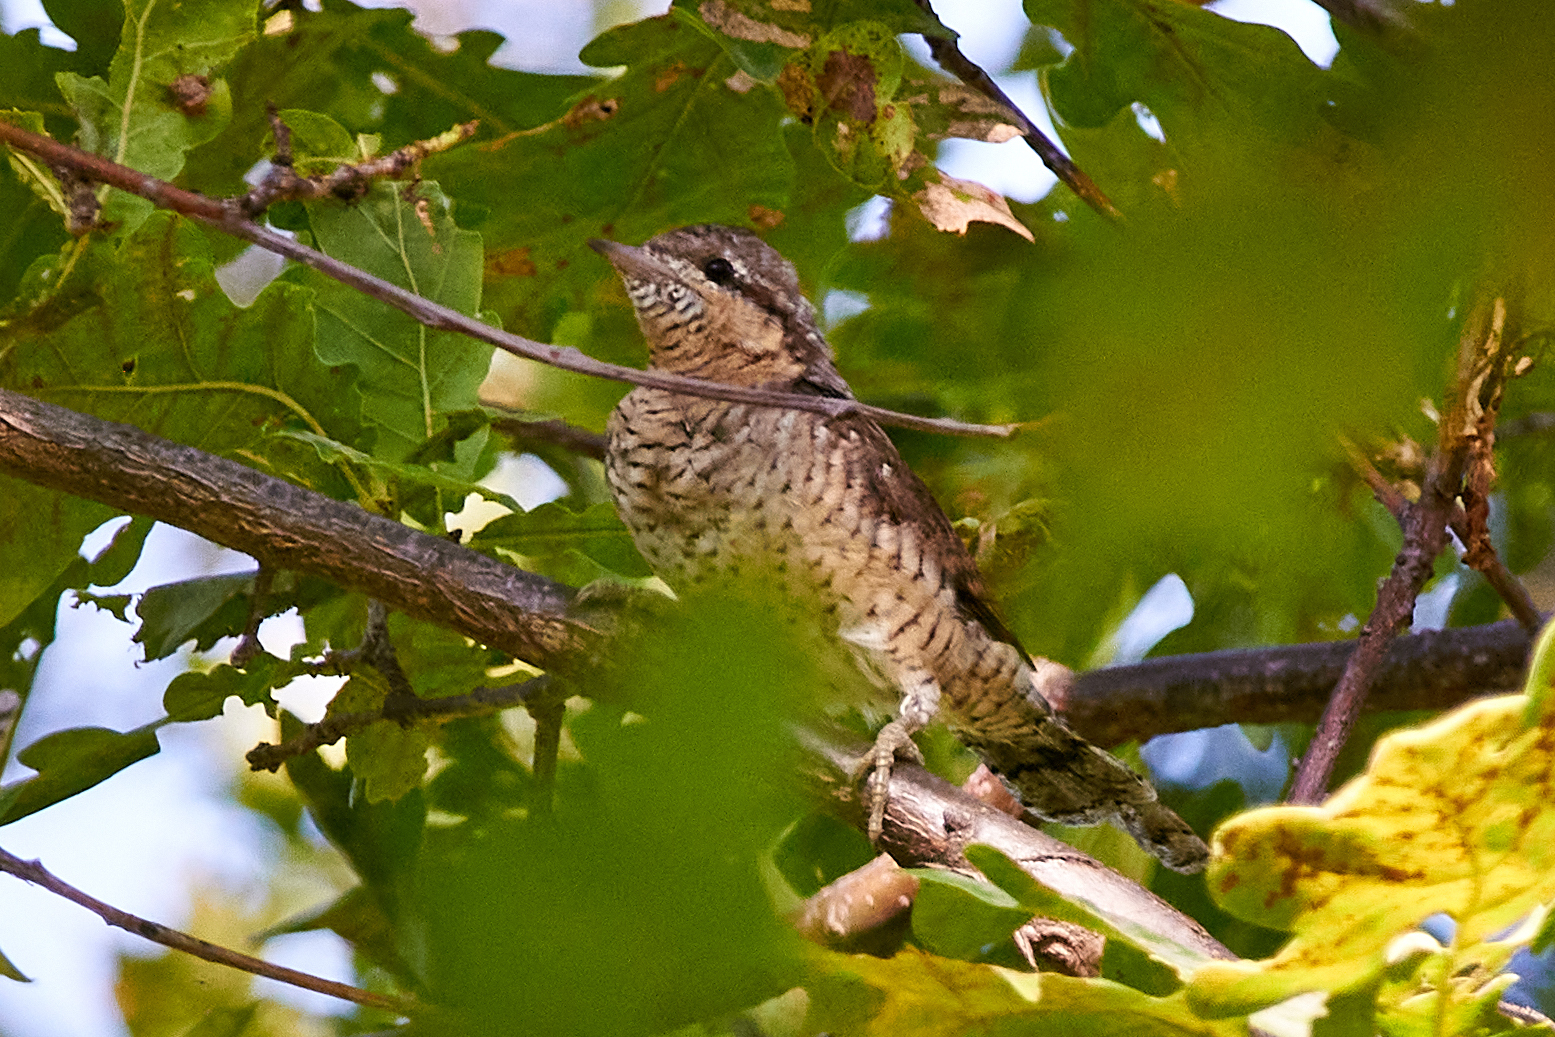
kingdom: Animalia
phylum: Chordata
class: Aves
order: Piciformes
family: Picidae
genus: Jynx
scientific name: Jynx torquilla
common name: Eurasian wryneck
